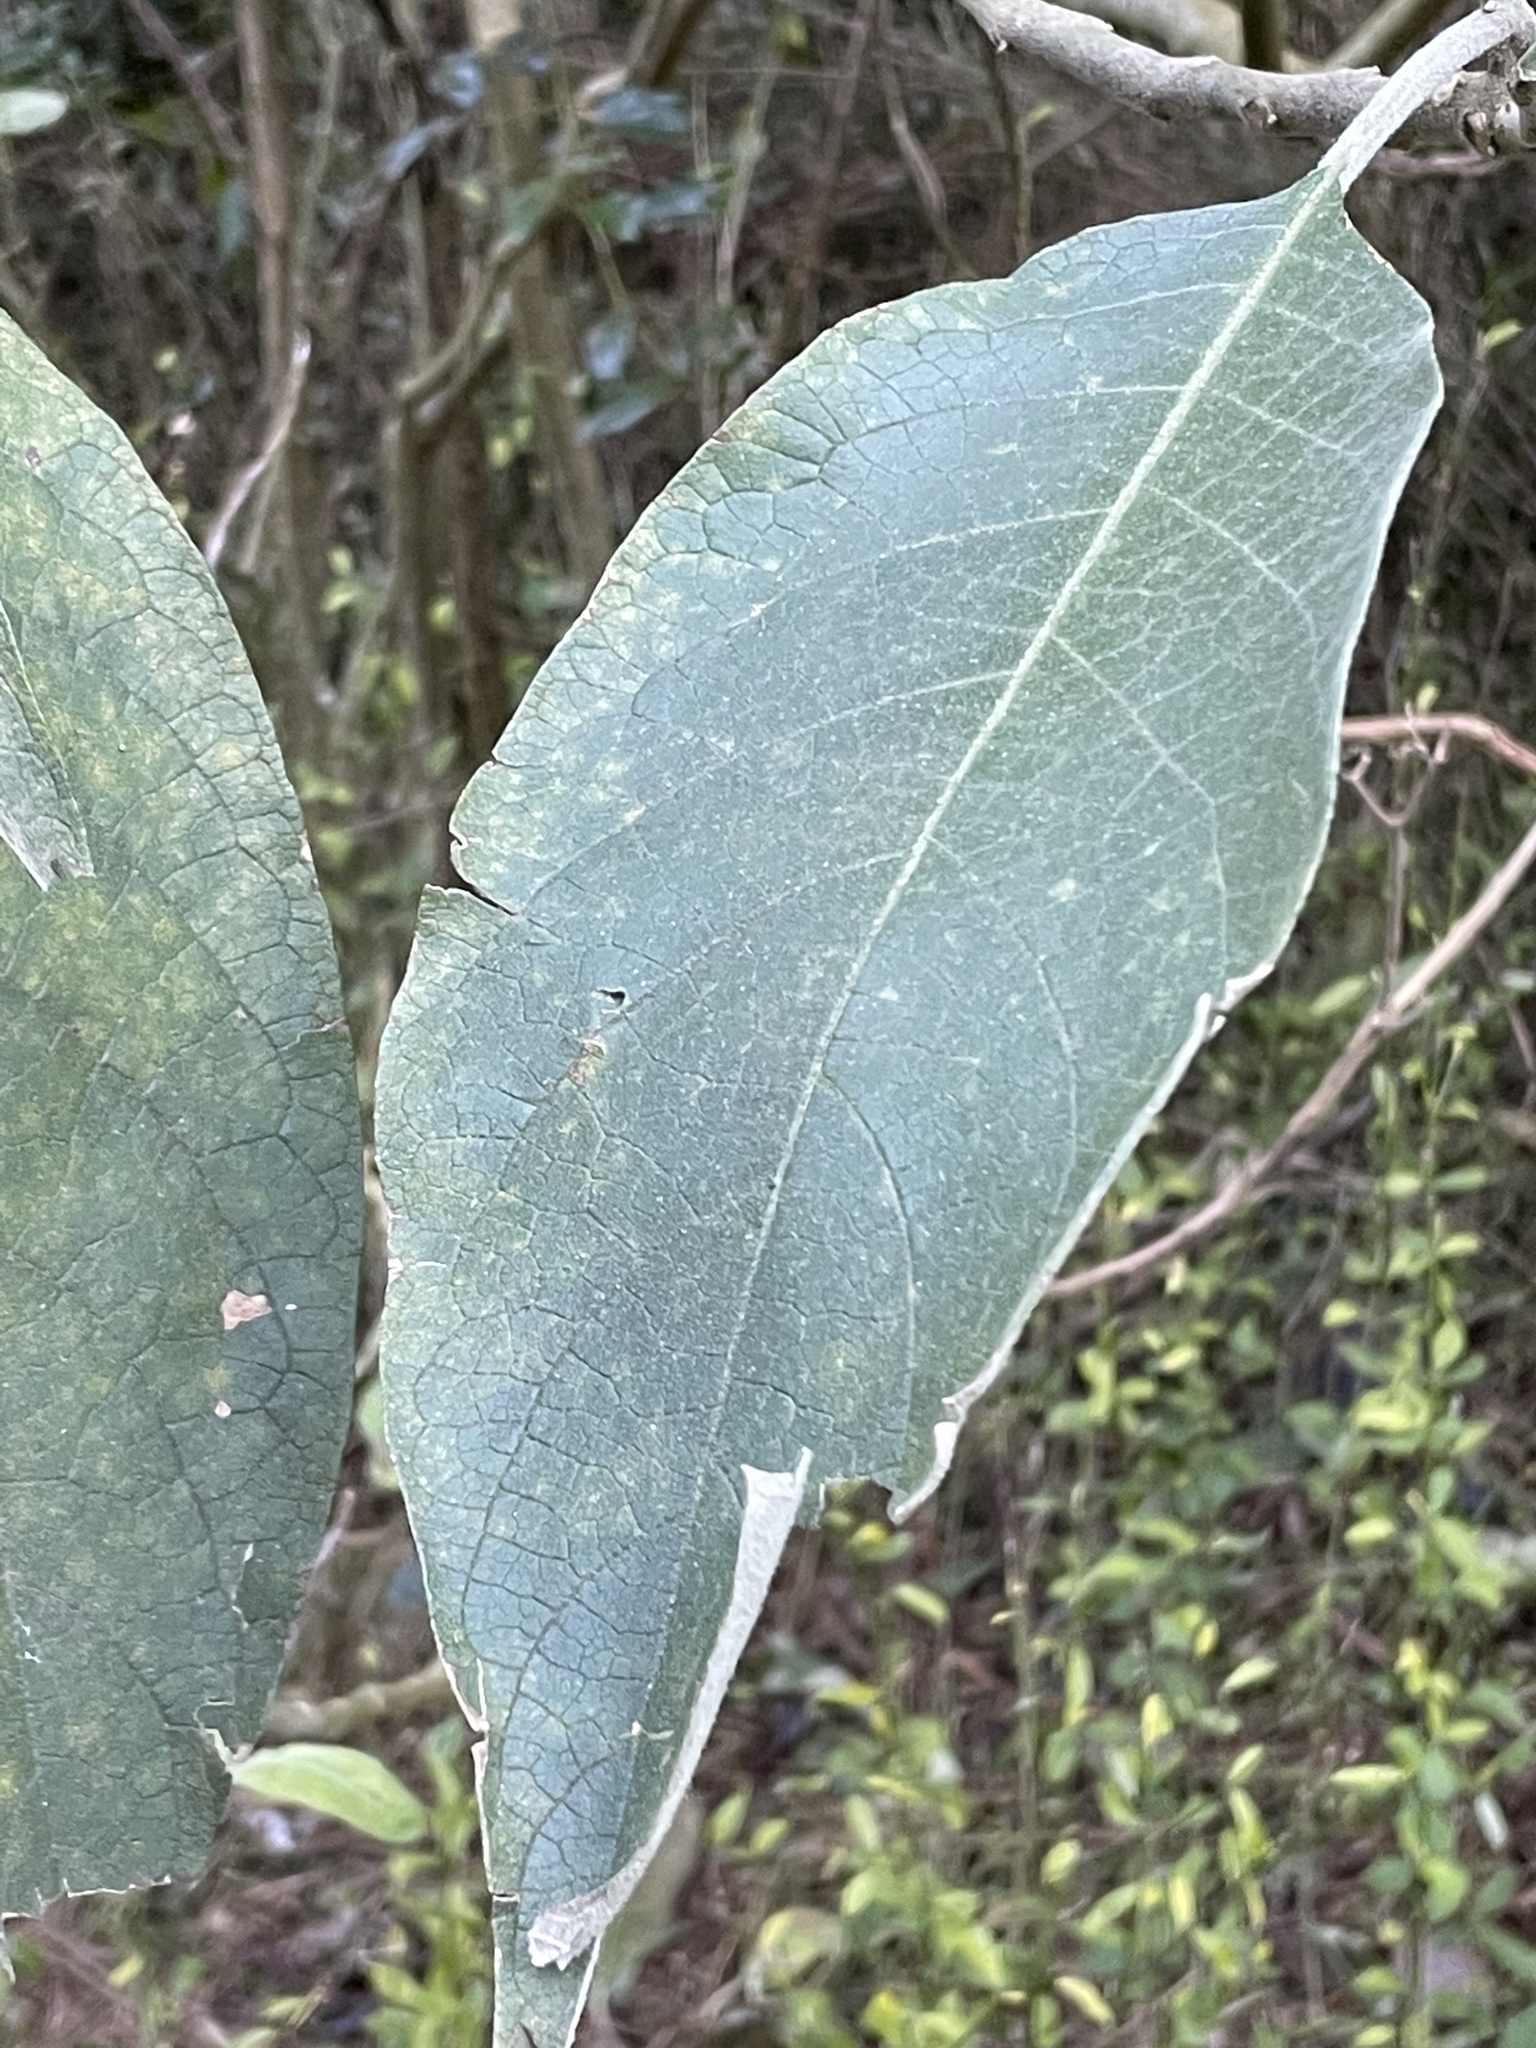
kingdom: Plantae
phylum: Tracheophyta
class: Magnoliopsida
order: Solanales
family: Solanaceae
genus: Solanum
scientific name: Solanum mauritianum
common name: Earleaf nightshade
